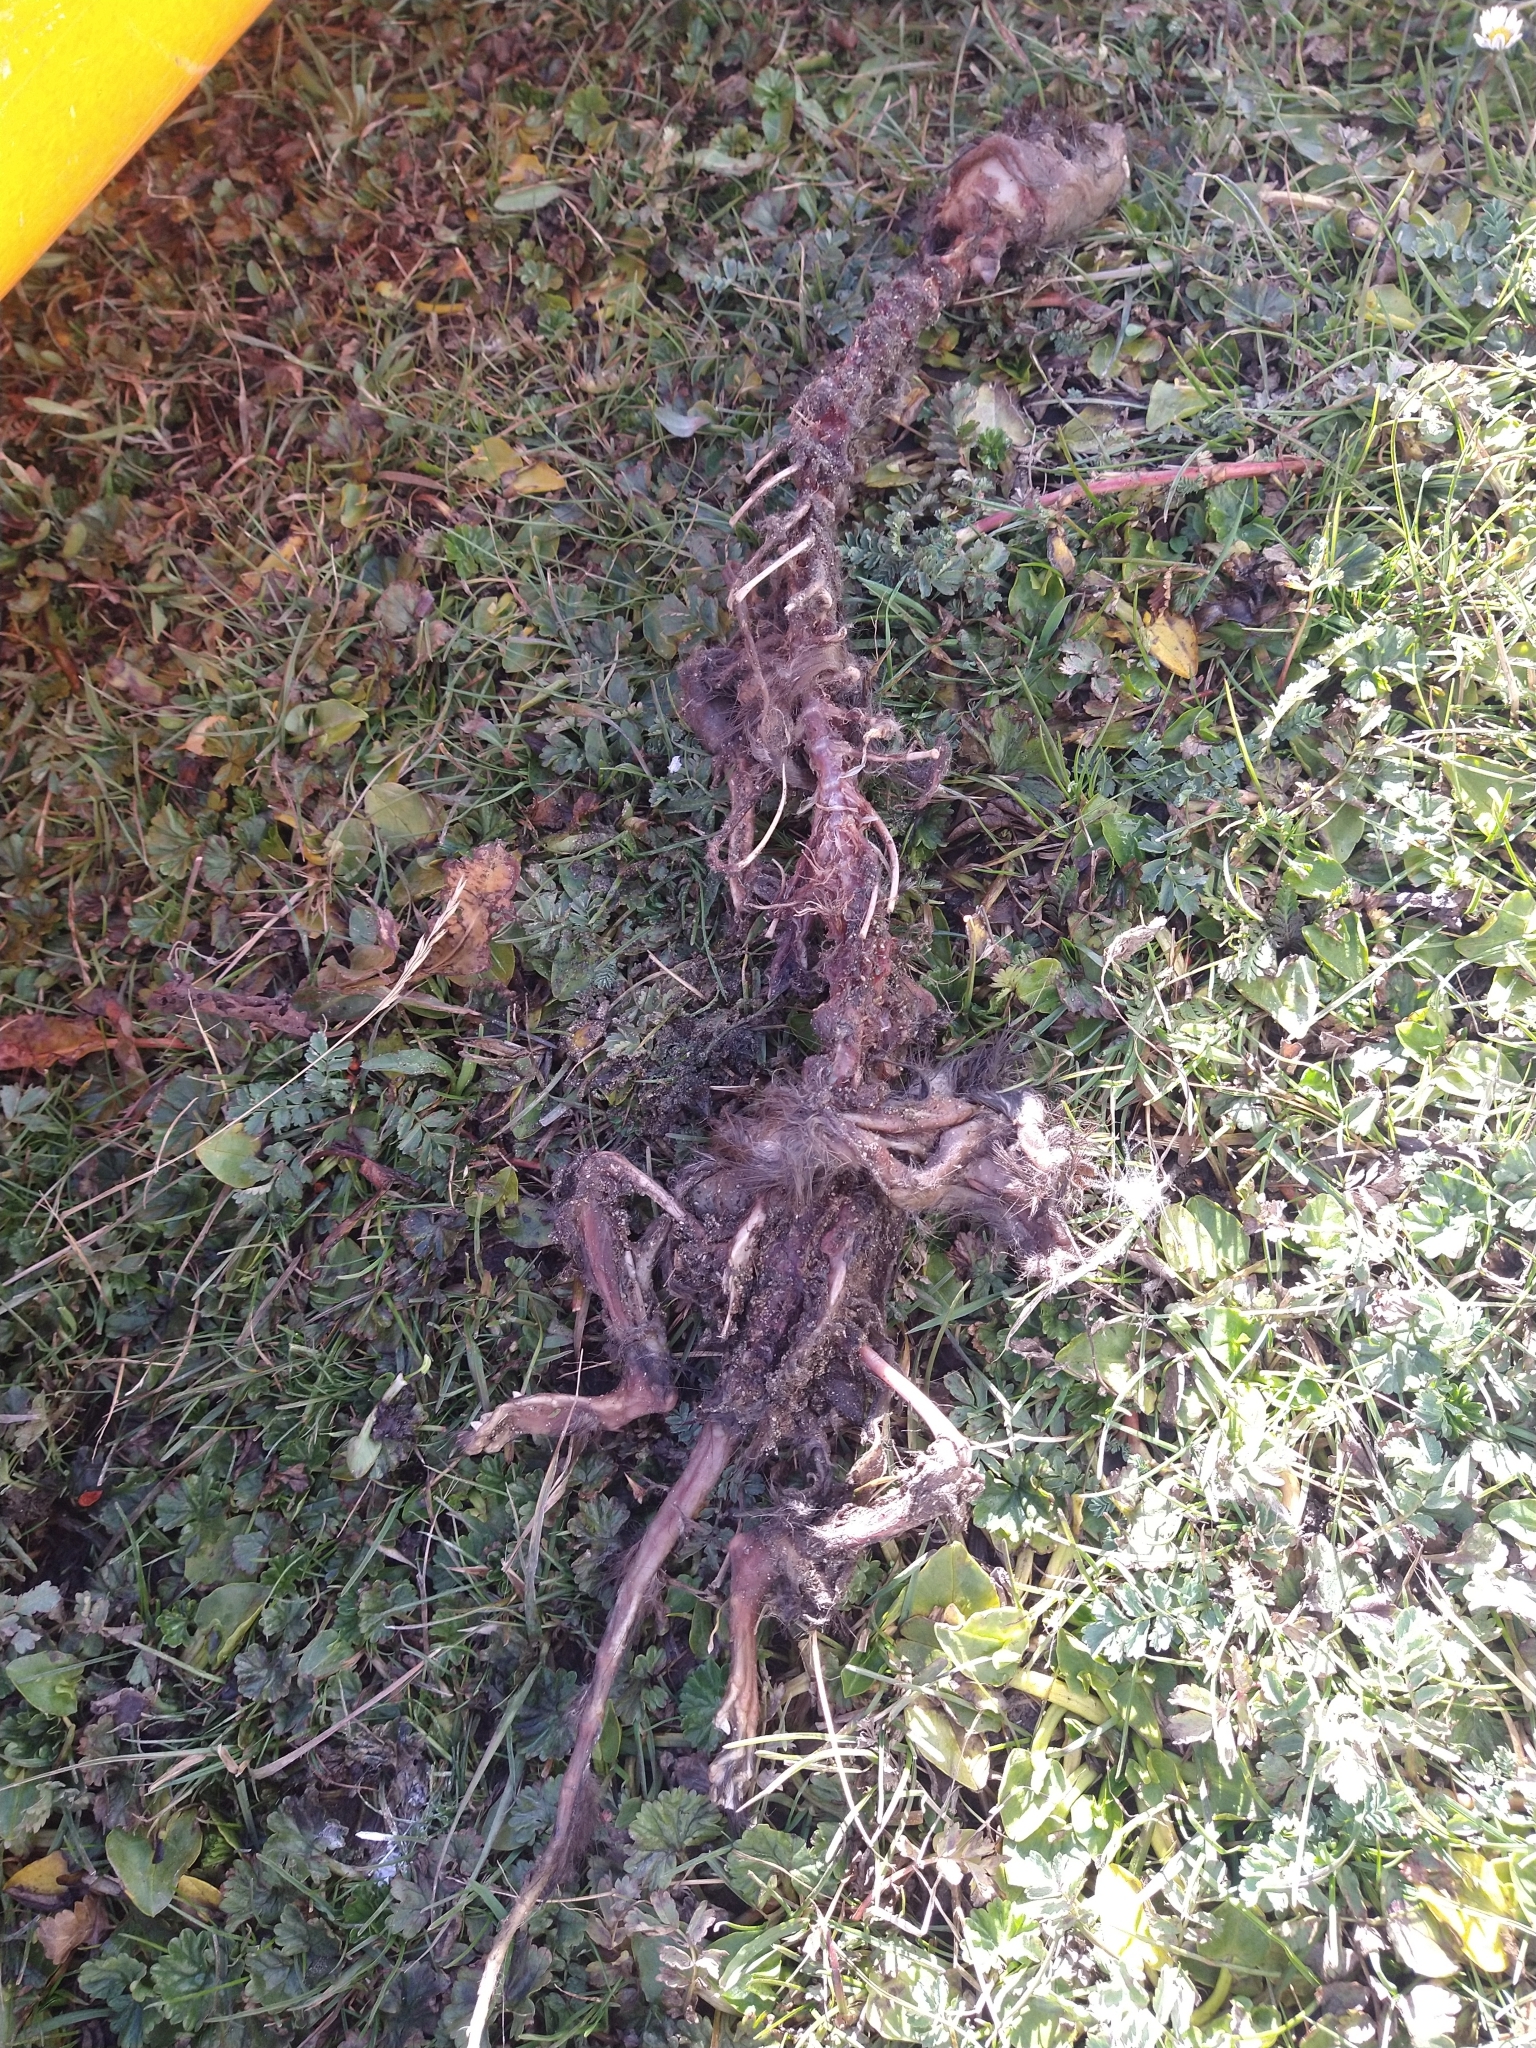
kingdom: Animalia
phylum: Chordata
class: Mammalia
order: Carnivora
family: Mustelidae
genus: Mustela
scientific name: Mustela
